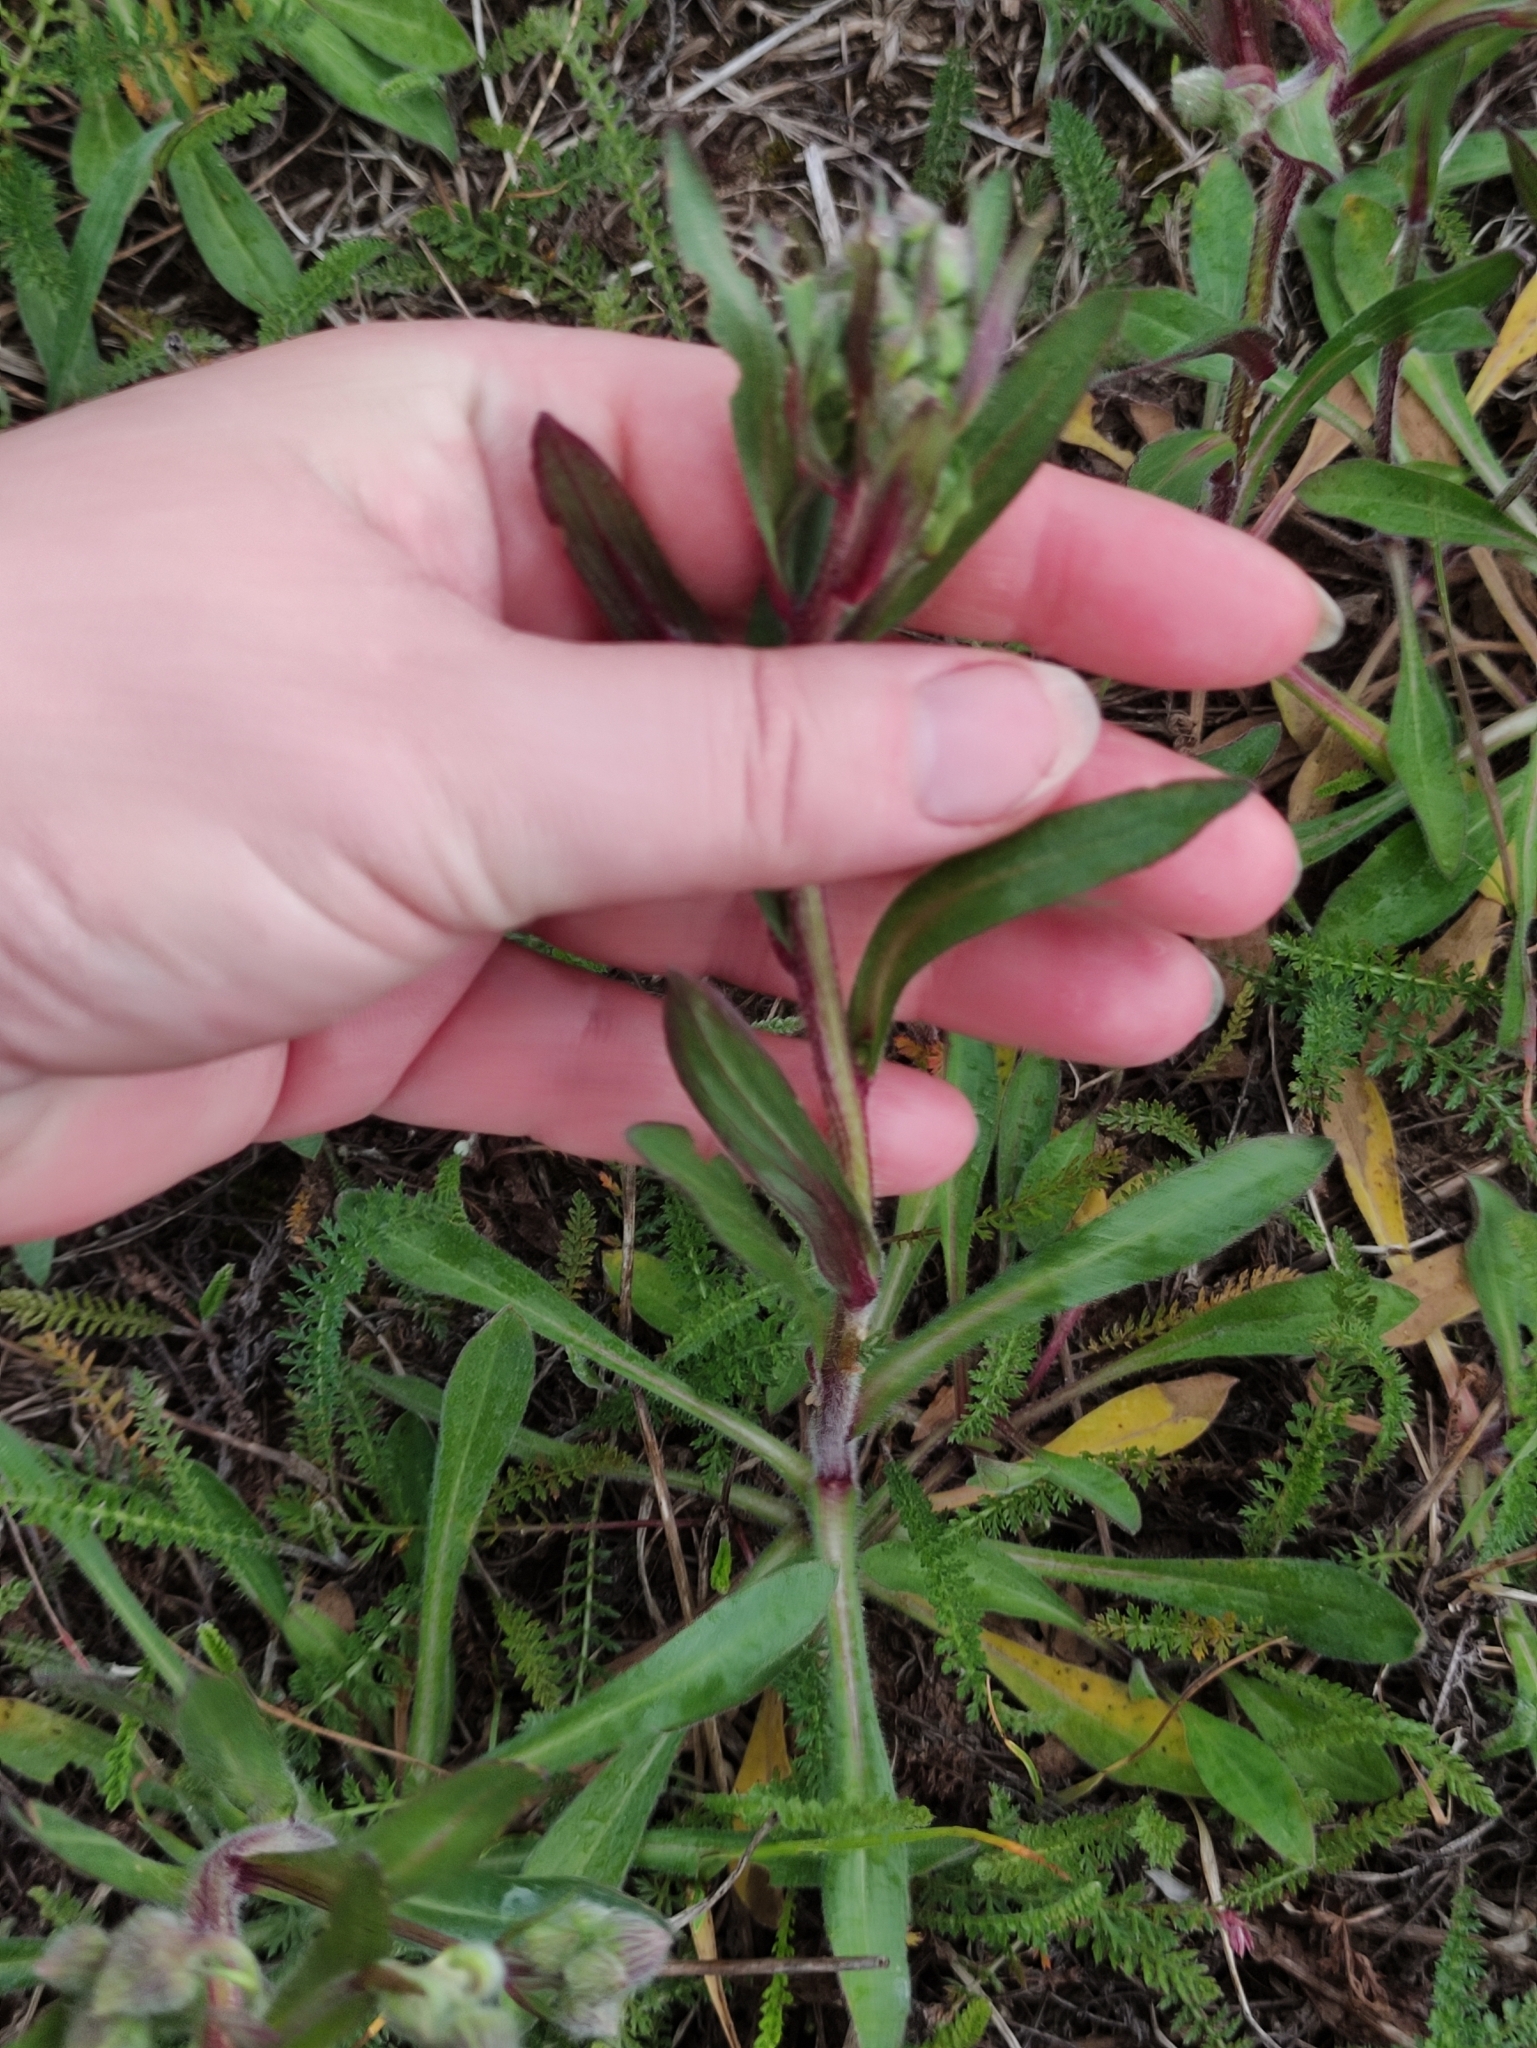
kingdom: Plantae
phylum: Tracheophyta
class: Magnoliopsida
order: Asterales
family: Asteraceae
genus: Erigeron
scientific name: Erigeron acris
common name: Blue fleabane
